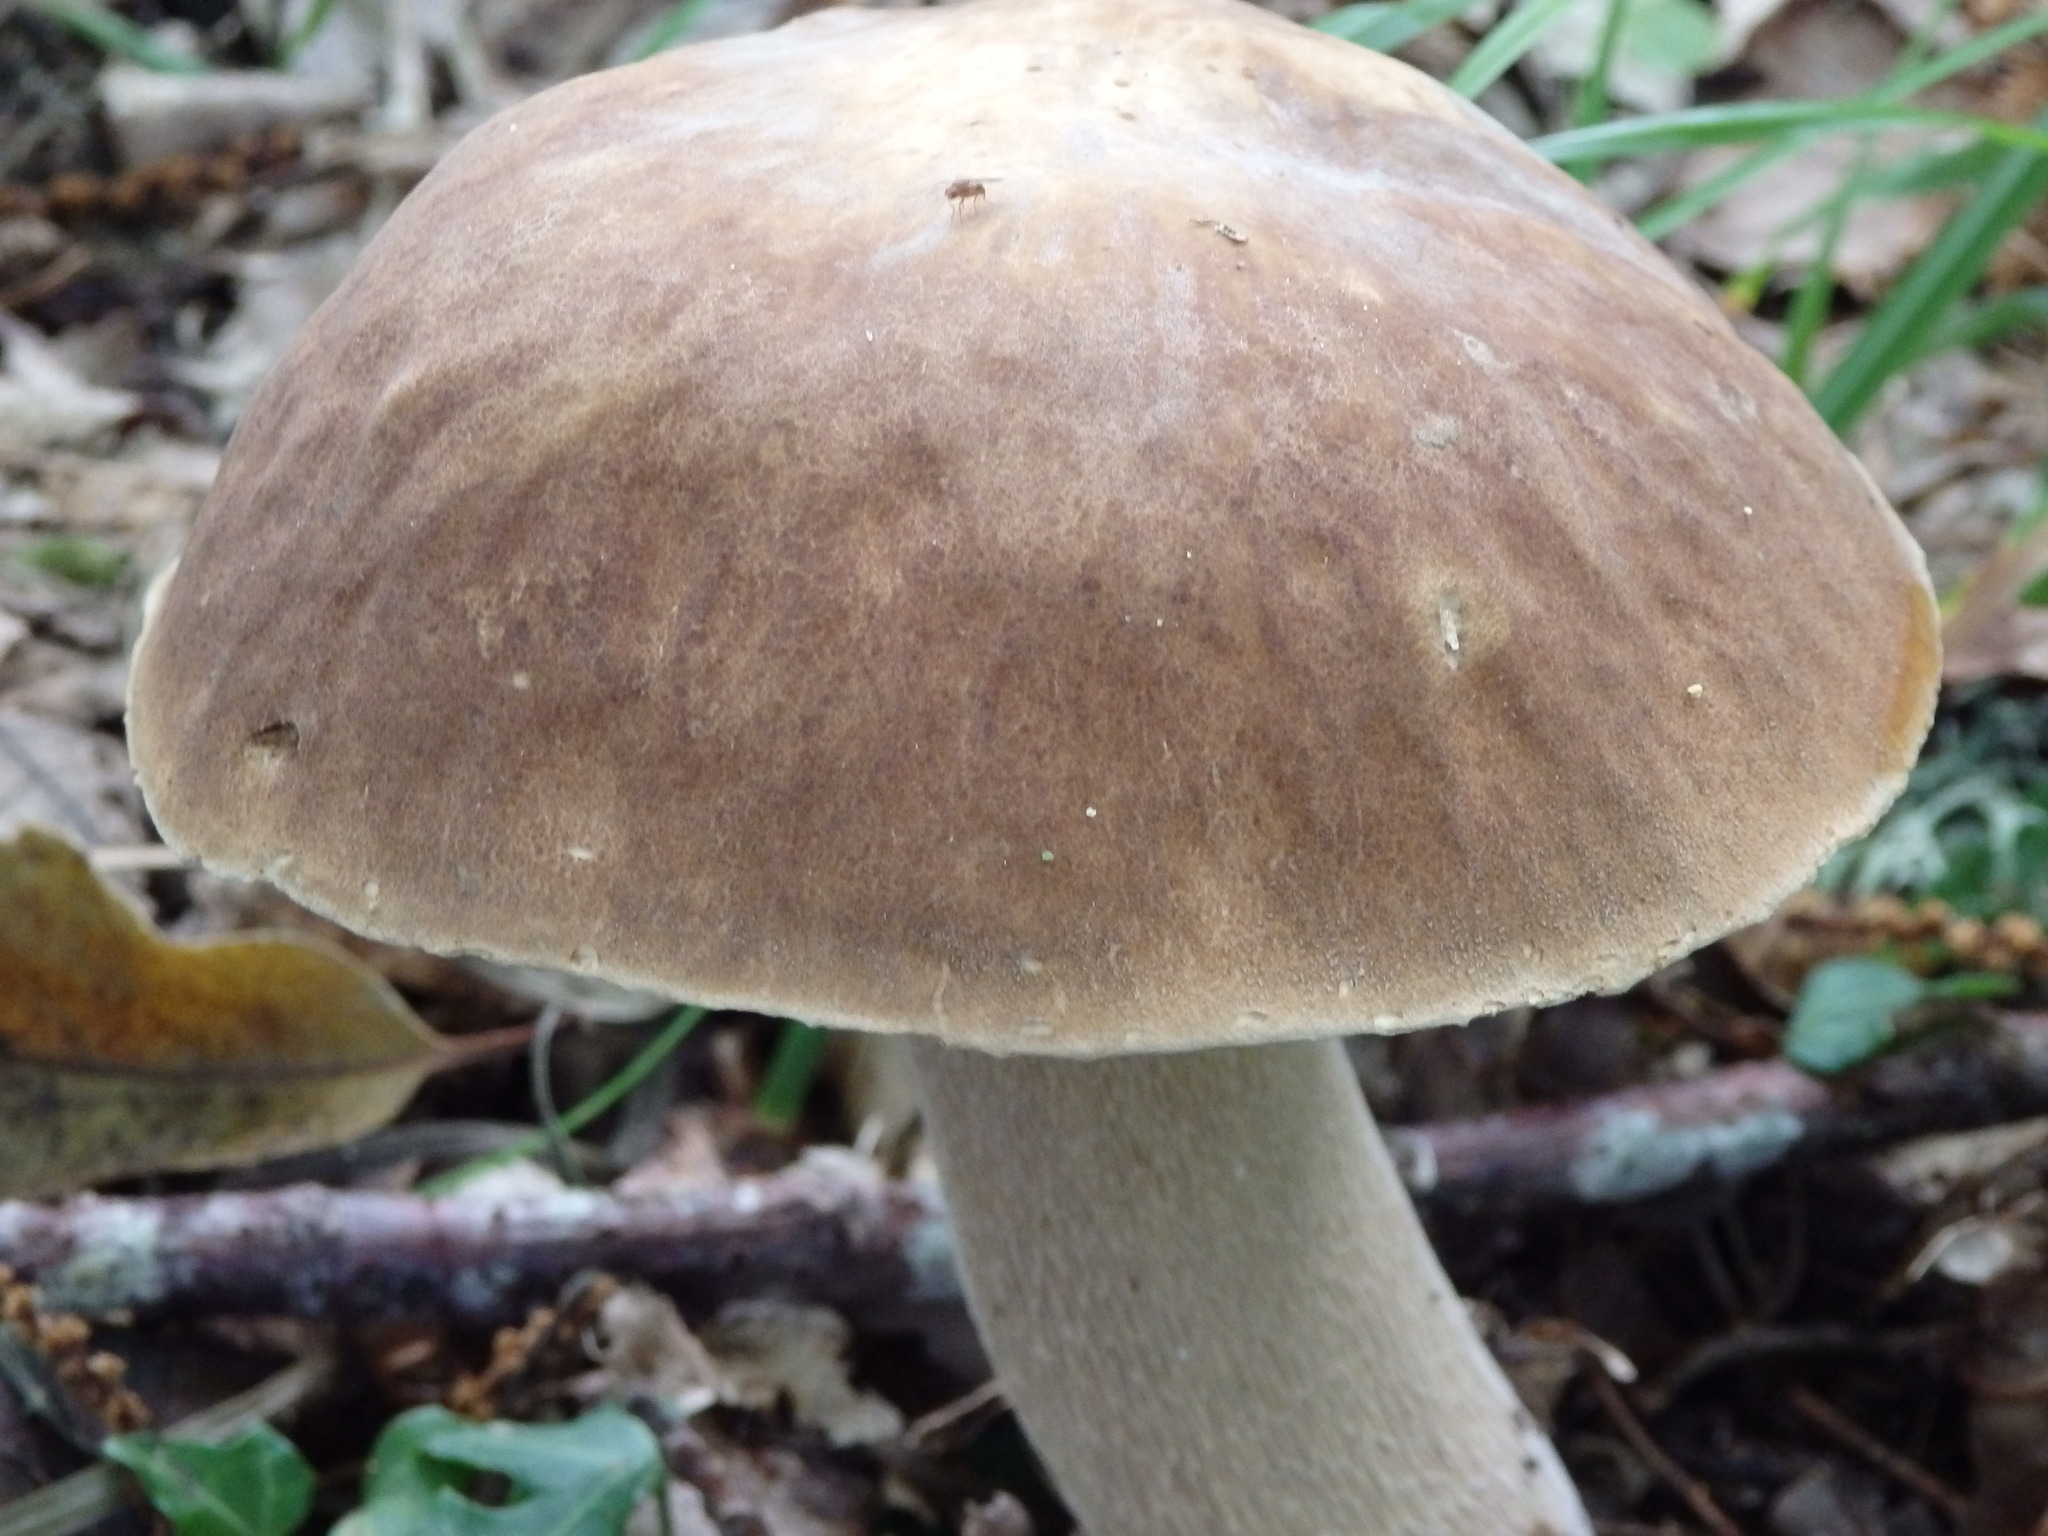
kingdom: Fungi
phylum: Basidiomycota
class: Agaricomycetes
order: Boletales
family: Boletaceae
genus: Boletus
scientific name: Boletus reticulatus
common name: Summer bolete
